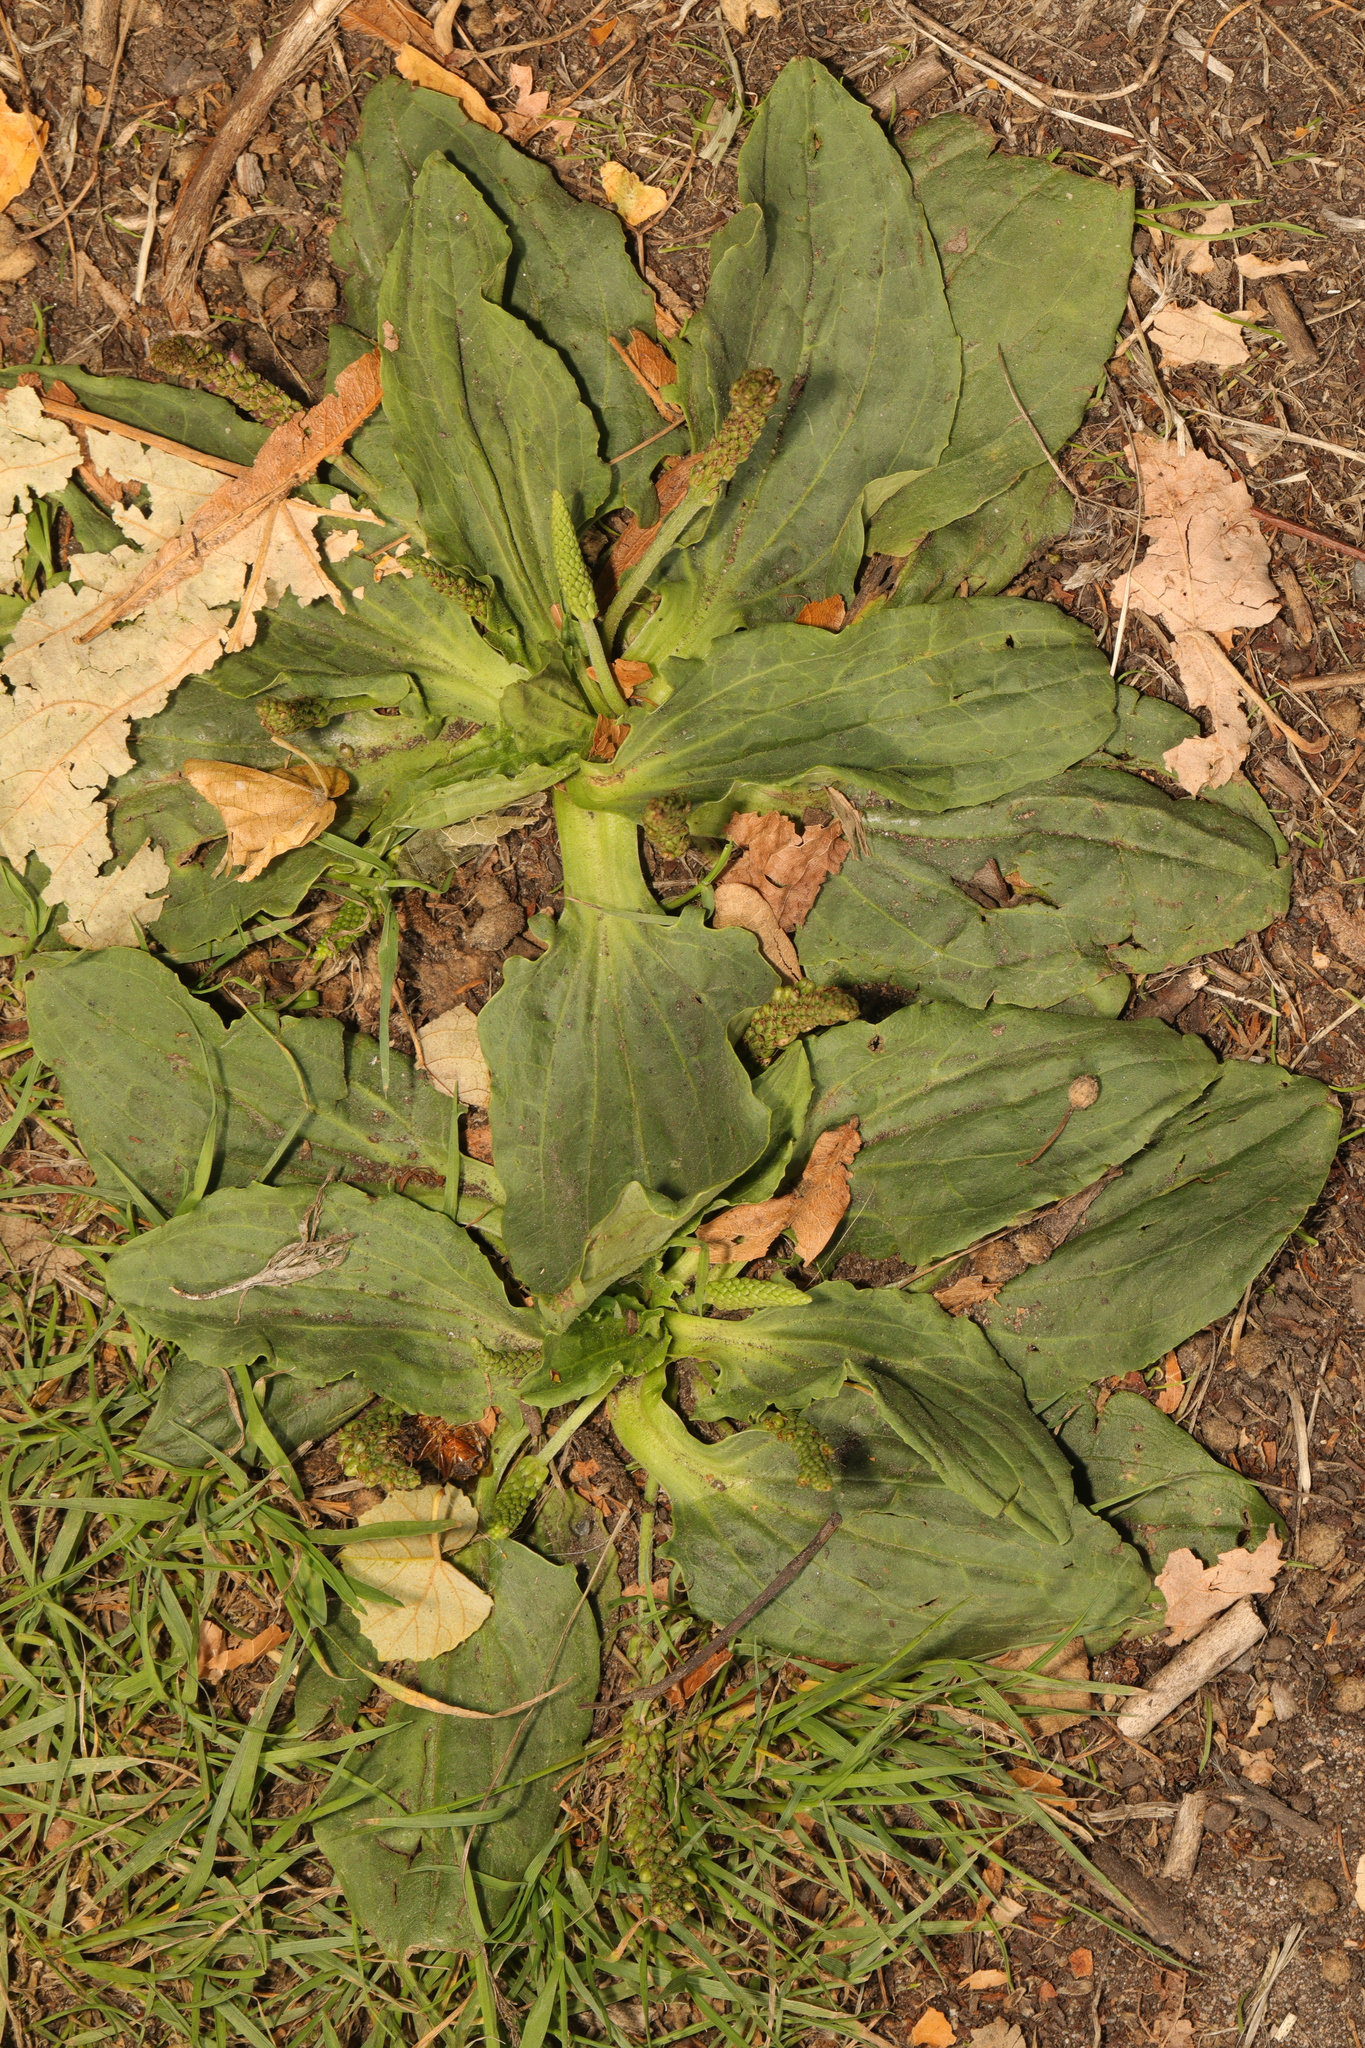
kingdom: Plantae
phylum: Tracheophyta
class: Magnoliopsida
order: Lamiales
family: Plantaginaceae
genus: Plantago
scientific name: Plantago major
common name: Common plantain
